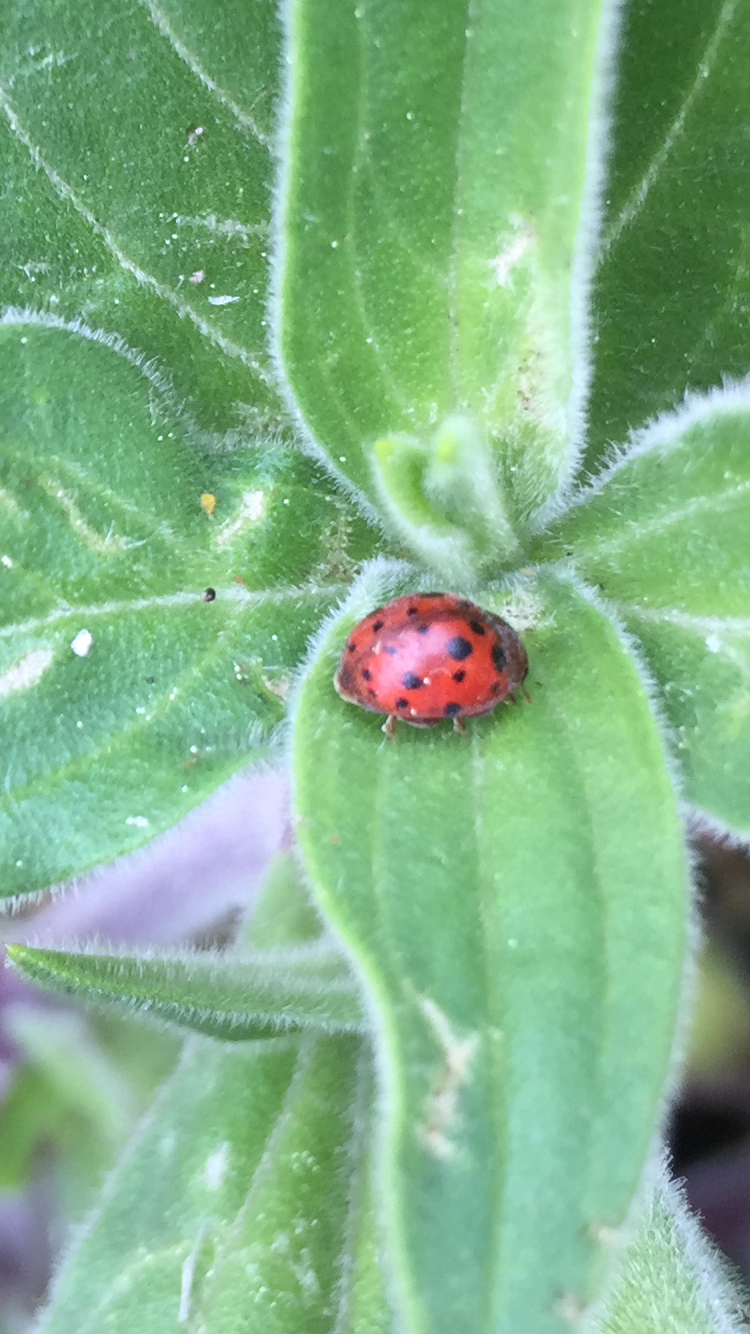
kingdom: Animalia
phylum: Arthropoda
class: Insecta
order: Coleoptera
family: Coccinellidae
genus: Subcoccinella
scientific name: Subcoccinella vigintiquatuorpunctata
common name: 24-spot ladybird
